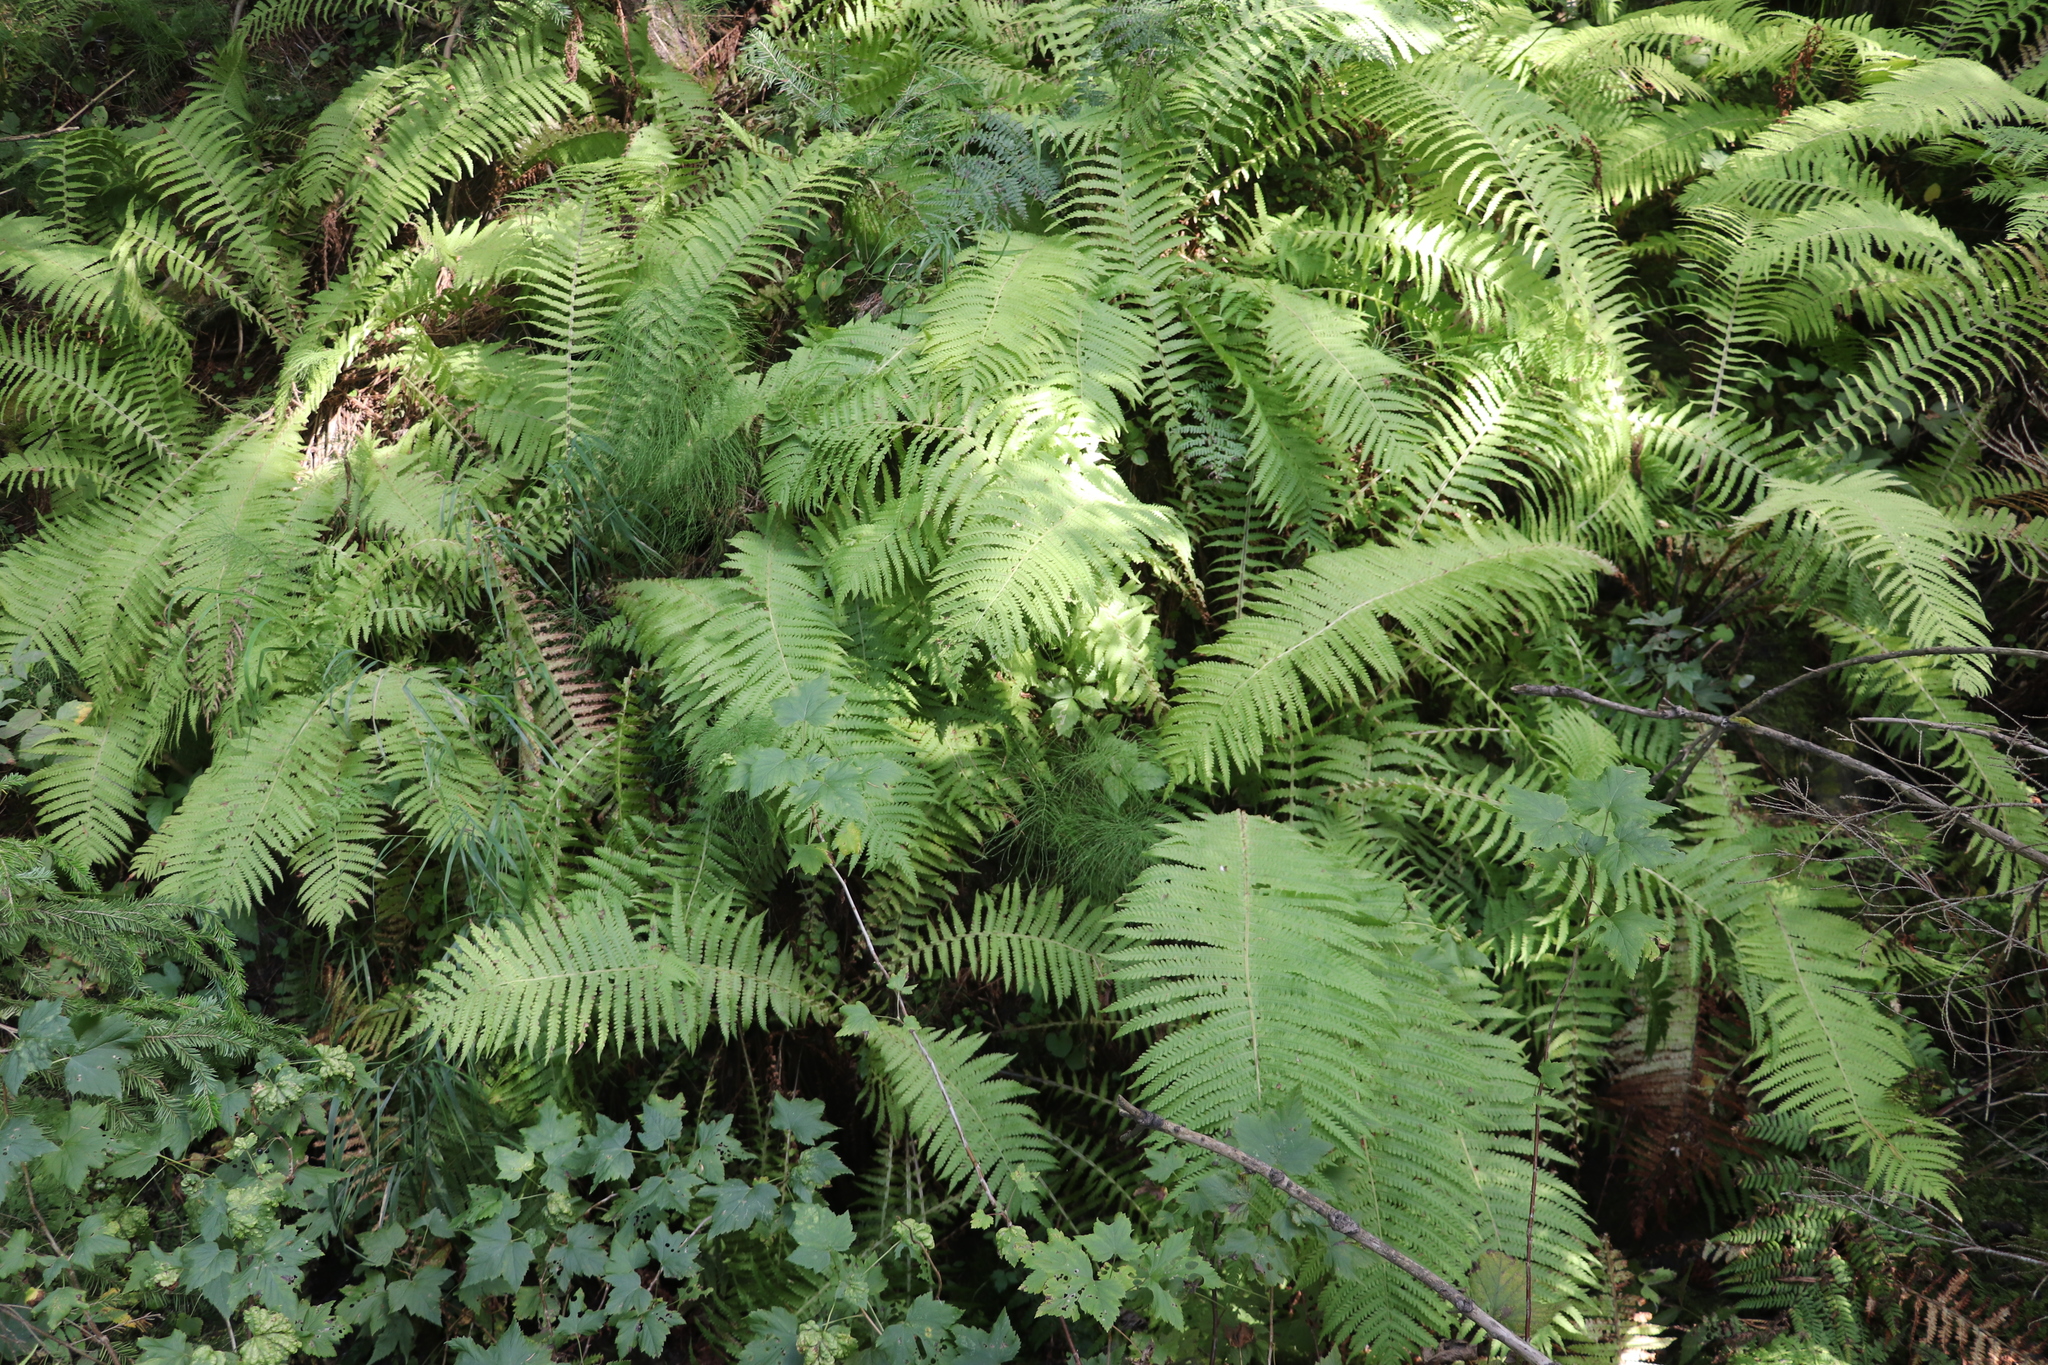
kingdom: Plantae
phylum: Tracheophyta
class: Polypodiopsida
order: Polypodiales
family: Onocleaceae
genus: Matteuccia
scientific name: Matteuccia struthiopteris
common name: Ostrich fern
